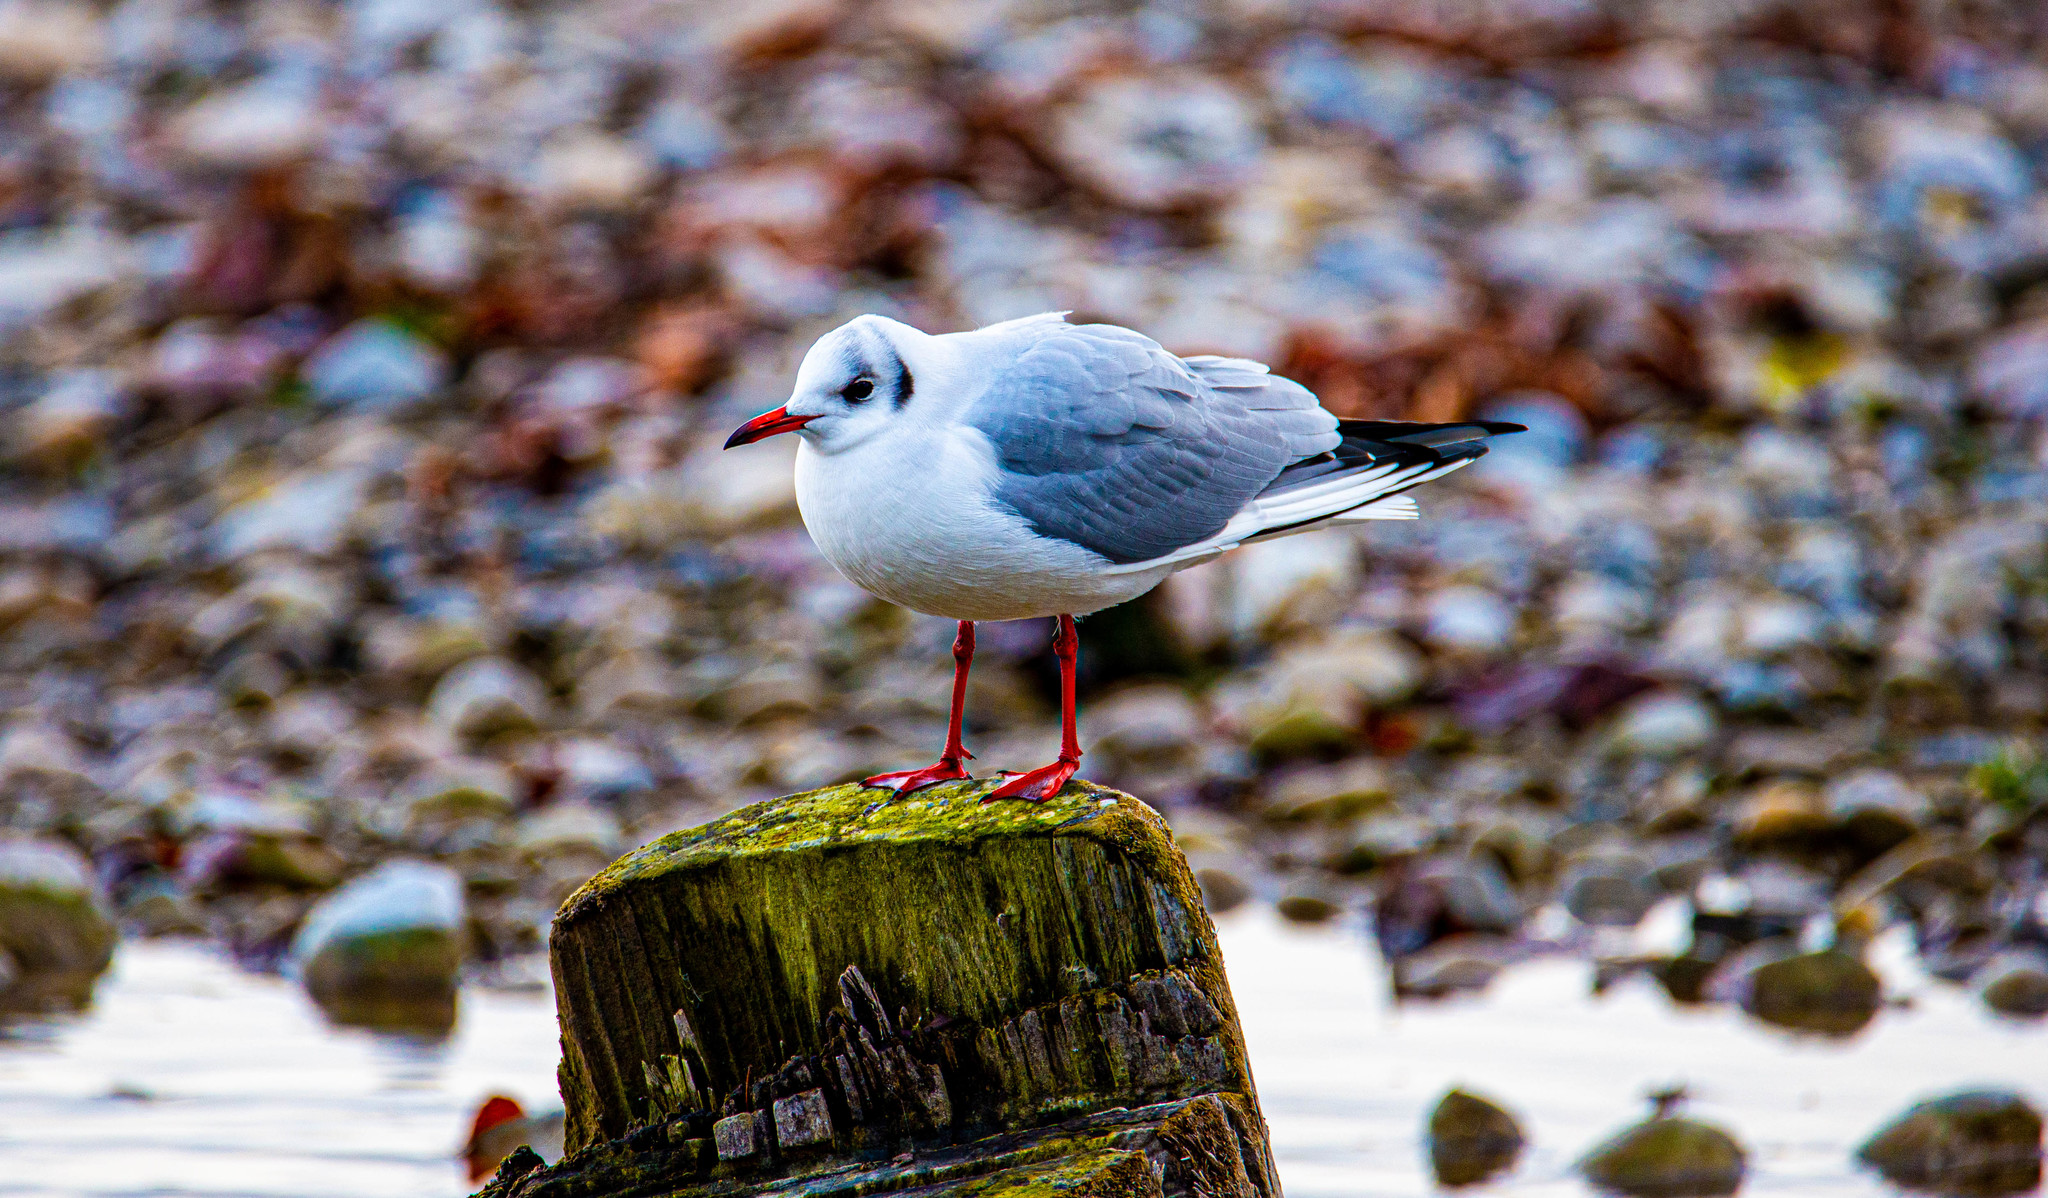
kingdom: Animalia
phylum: Chordata
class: Aves
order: Charadriiformes
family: Laridae
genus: Chroicocephalus
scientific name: Chroicocephalus ridibundus
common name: Black-headed gull
